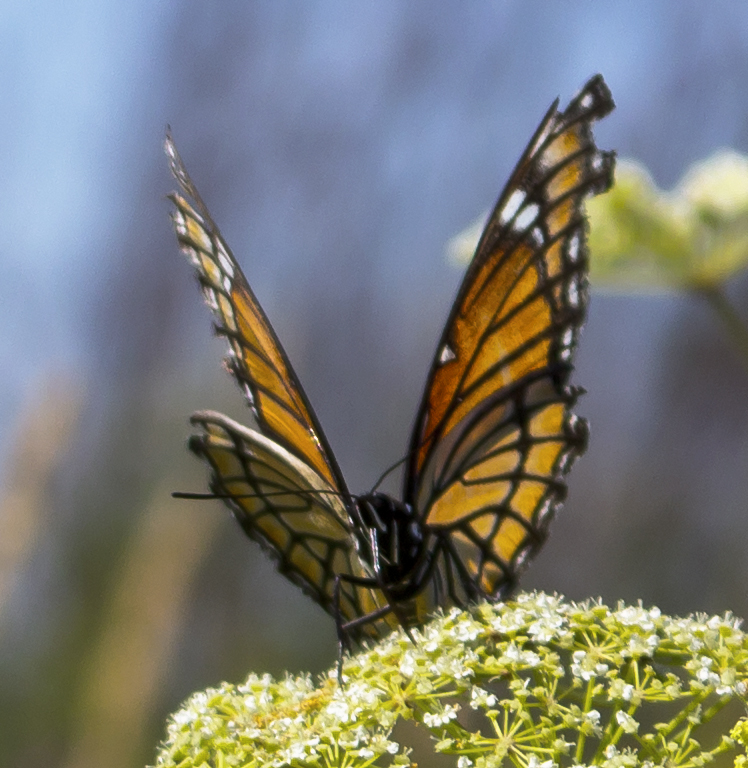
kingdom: Animalia
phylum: Arthropoda
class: Insecta
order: Lepidoptera
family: Nymphalidae
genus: Limenitis
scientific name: Limenitis archippus
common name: Viceroy
